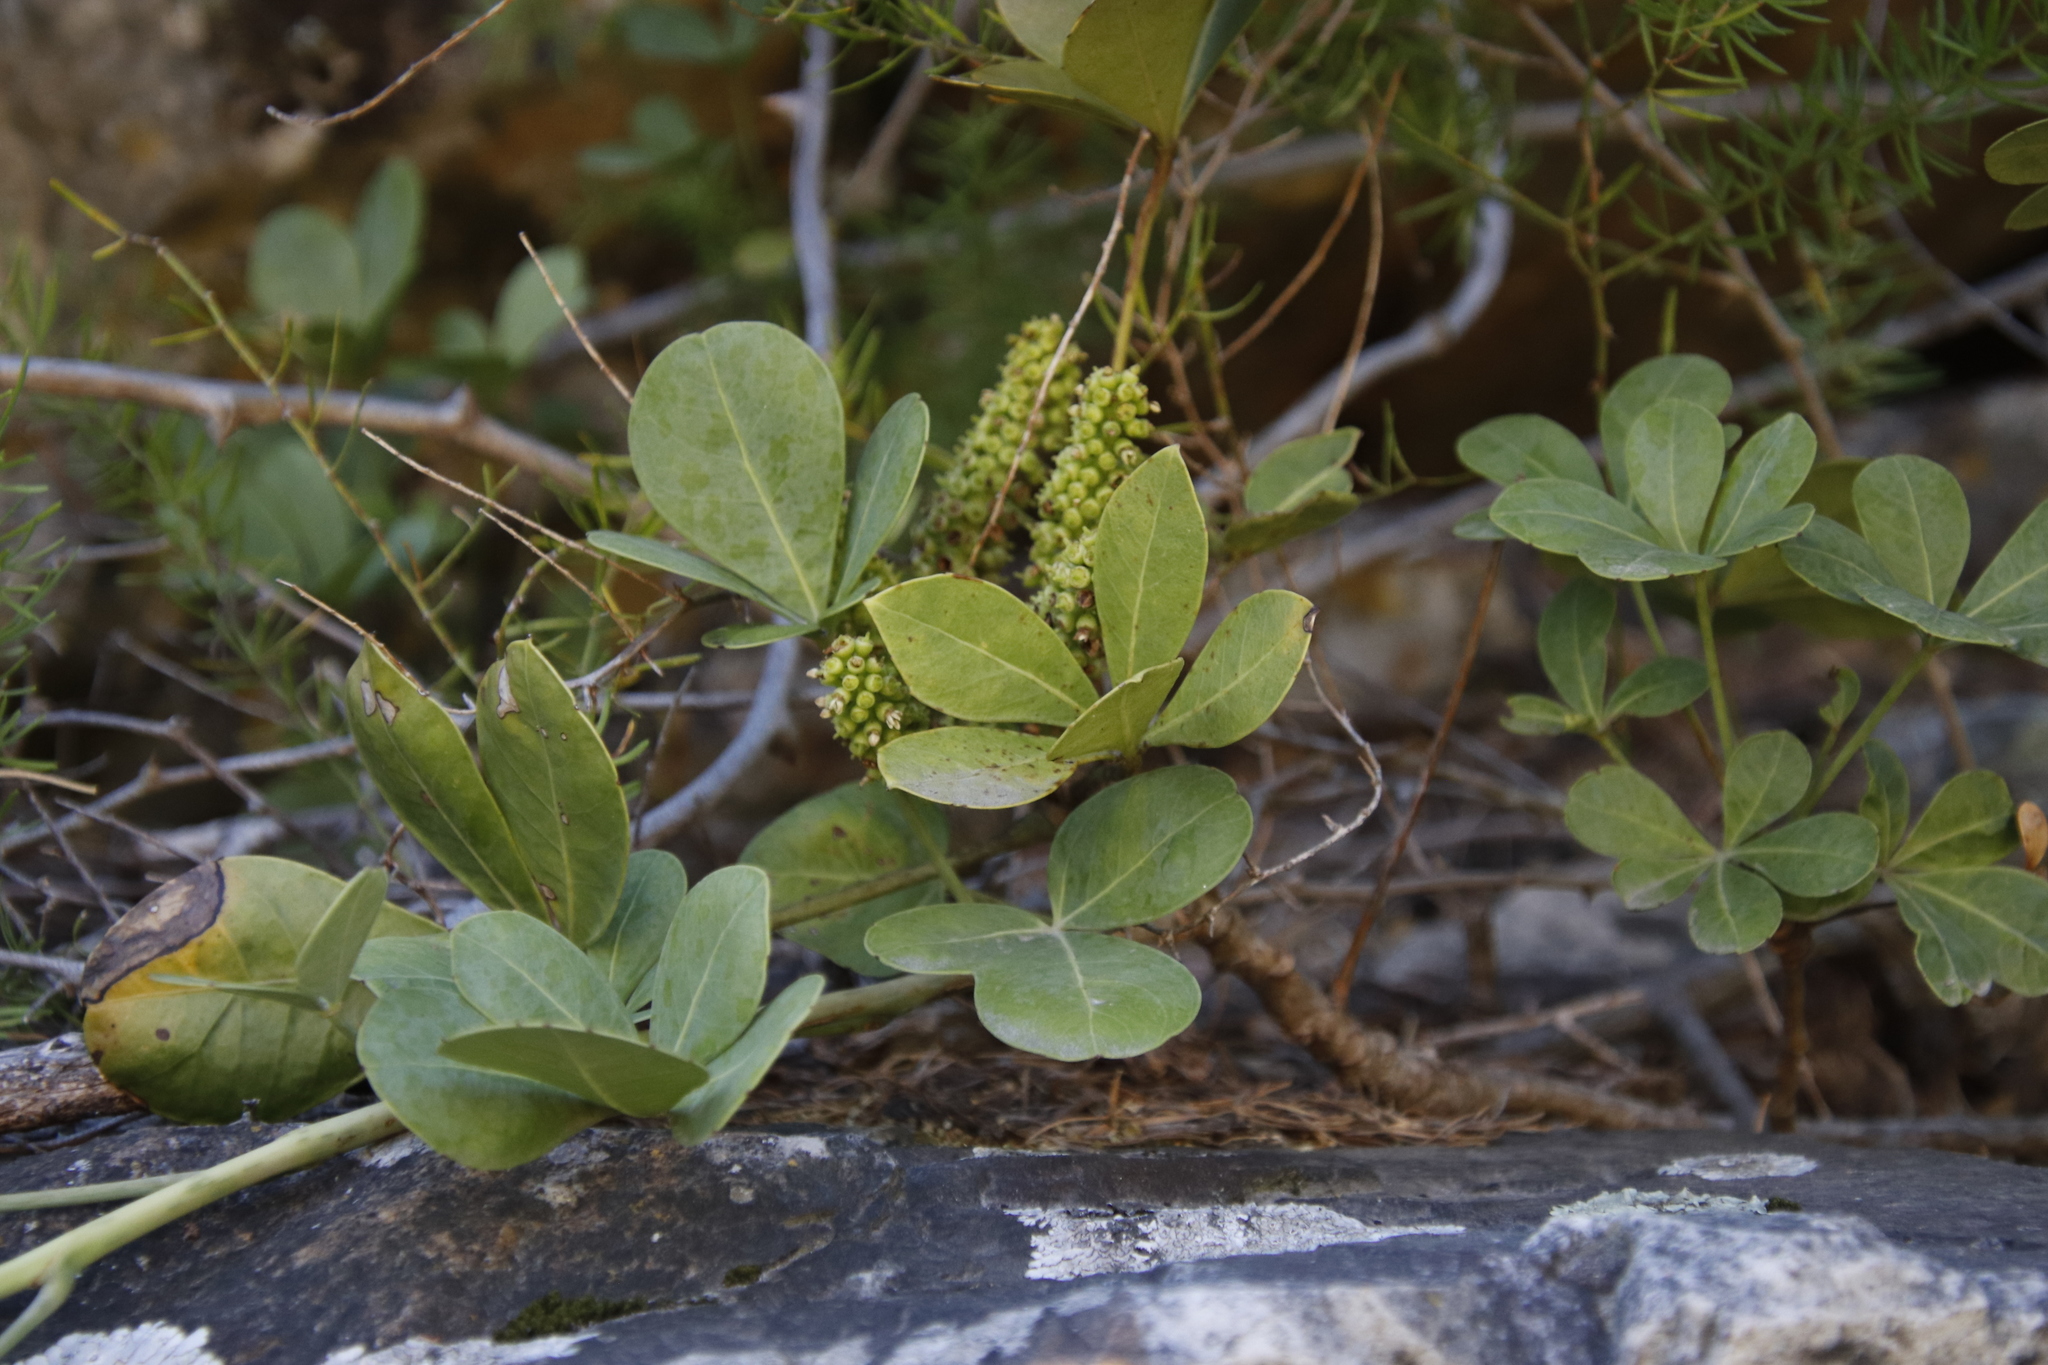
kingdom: Plantae
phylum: Tracheophyta
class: Magnoliopsida
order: Apiales
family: Araliaceae
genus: Cussonia
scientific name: Cussonia thyrsiflora
